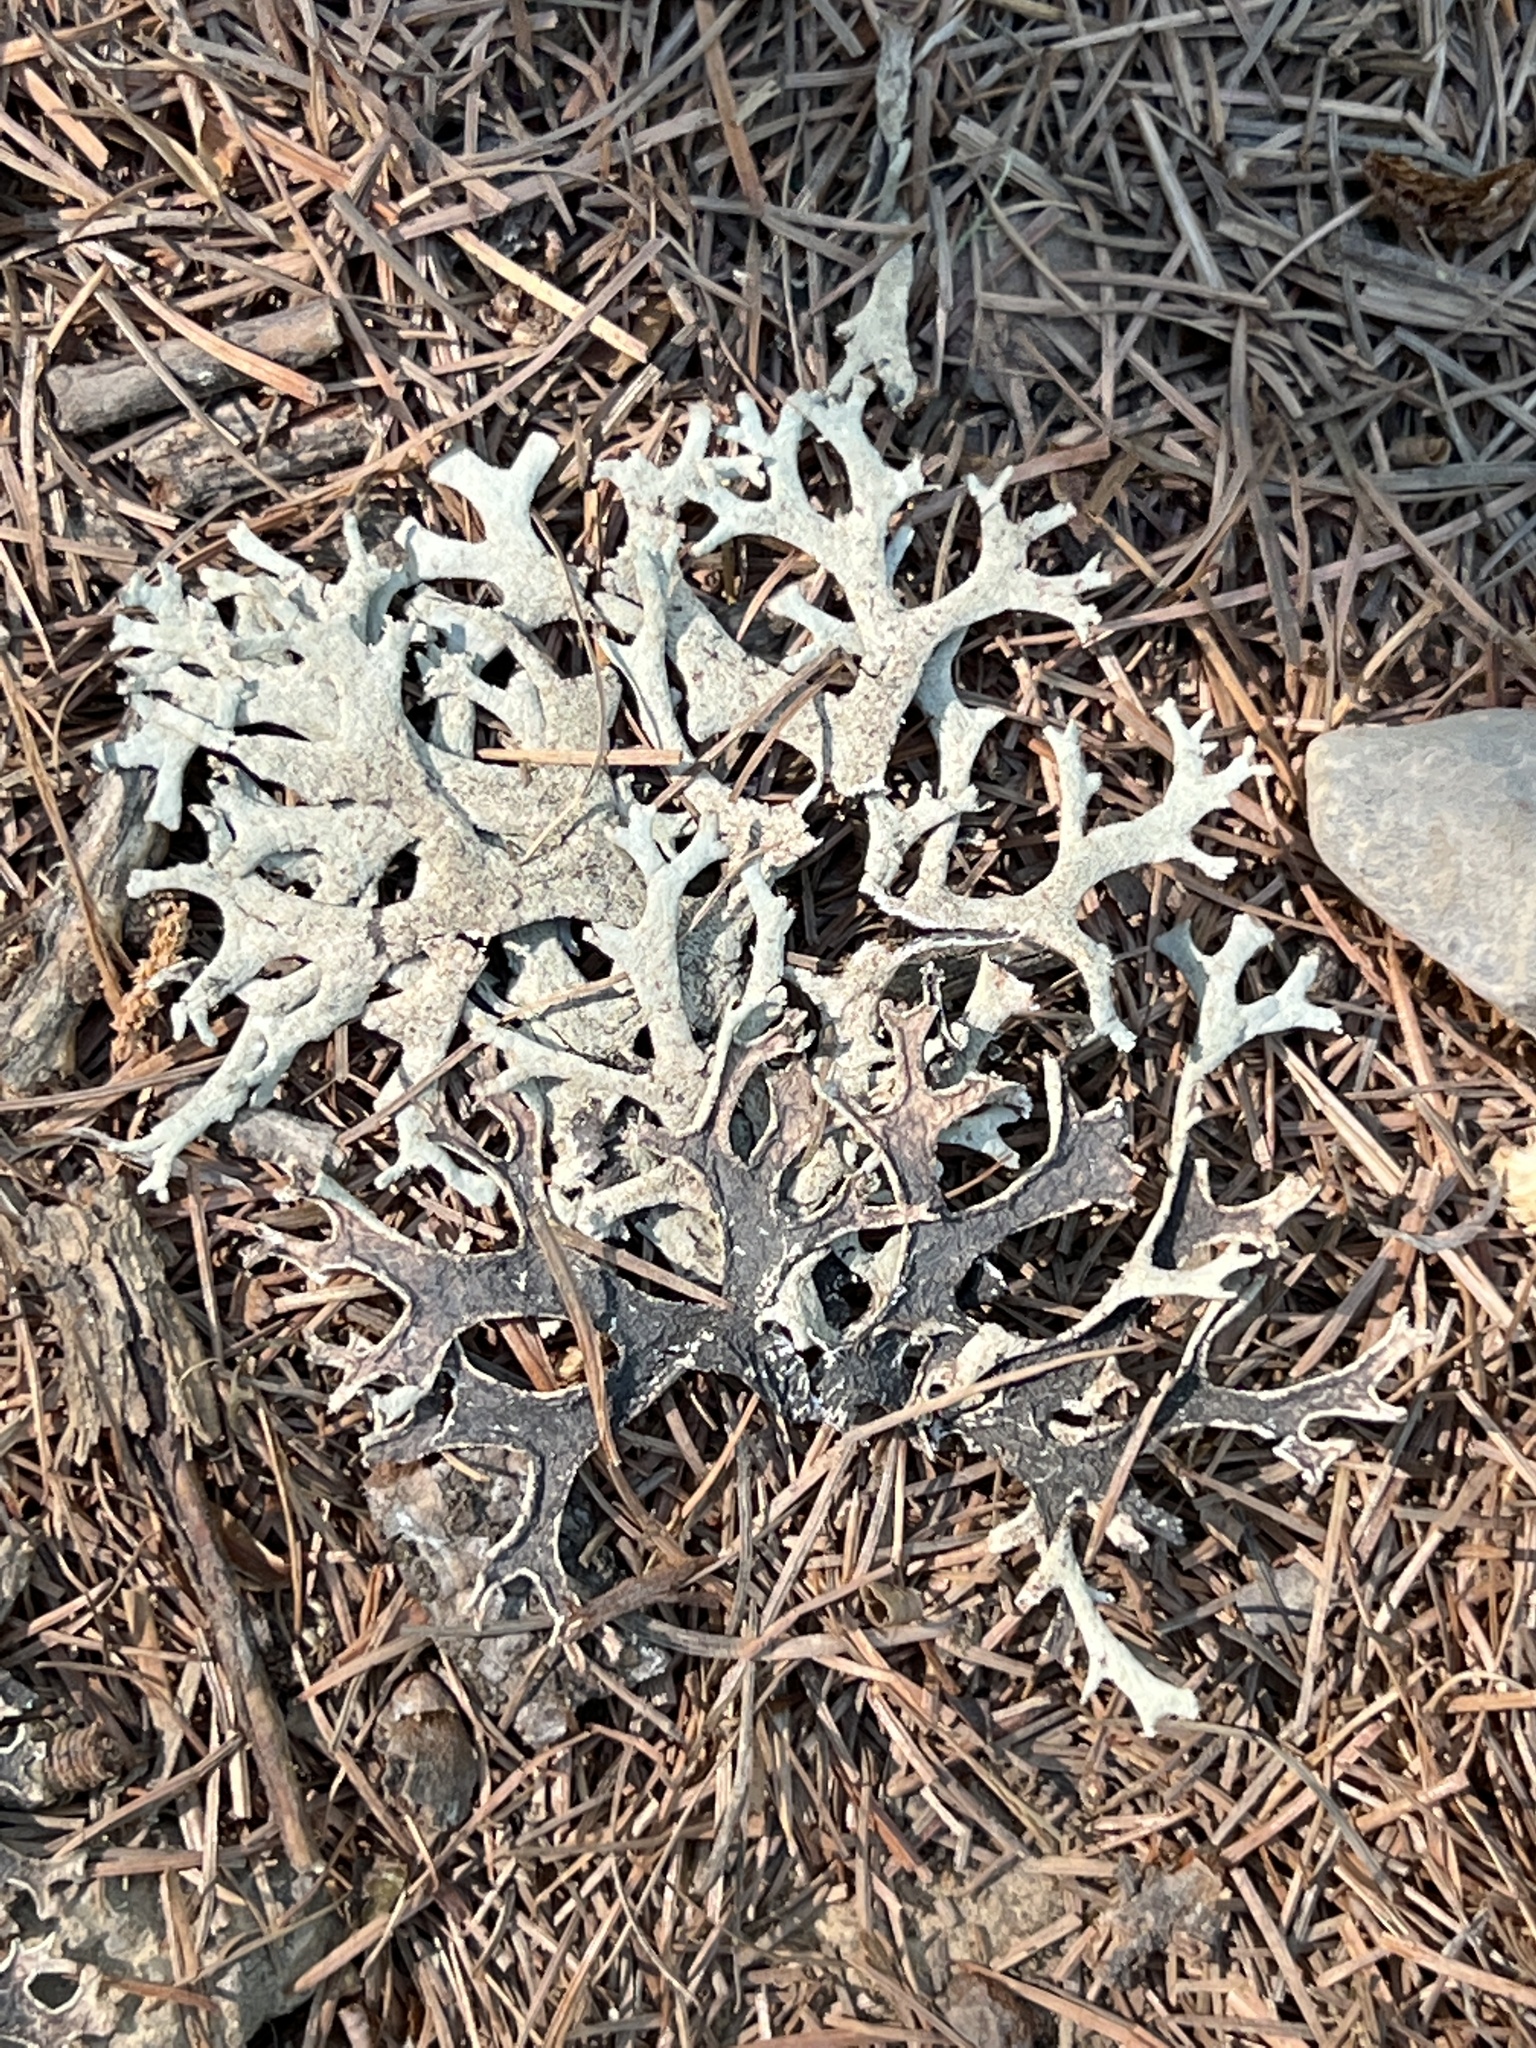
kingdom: Fungi
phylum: Ascomycota
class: Lecanoromycetes
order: Lecanorales
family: Parmeliaceae
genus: Pseudevernia
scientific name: Pseudevernia furfuracea
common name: Tree moss
